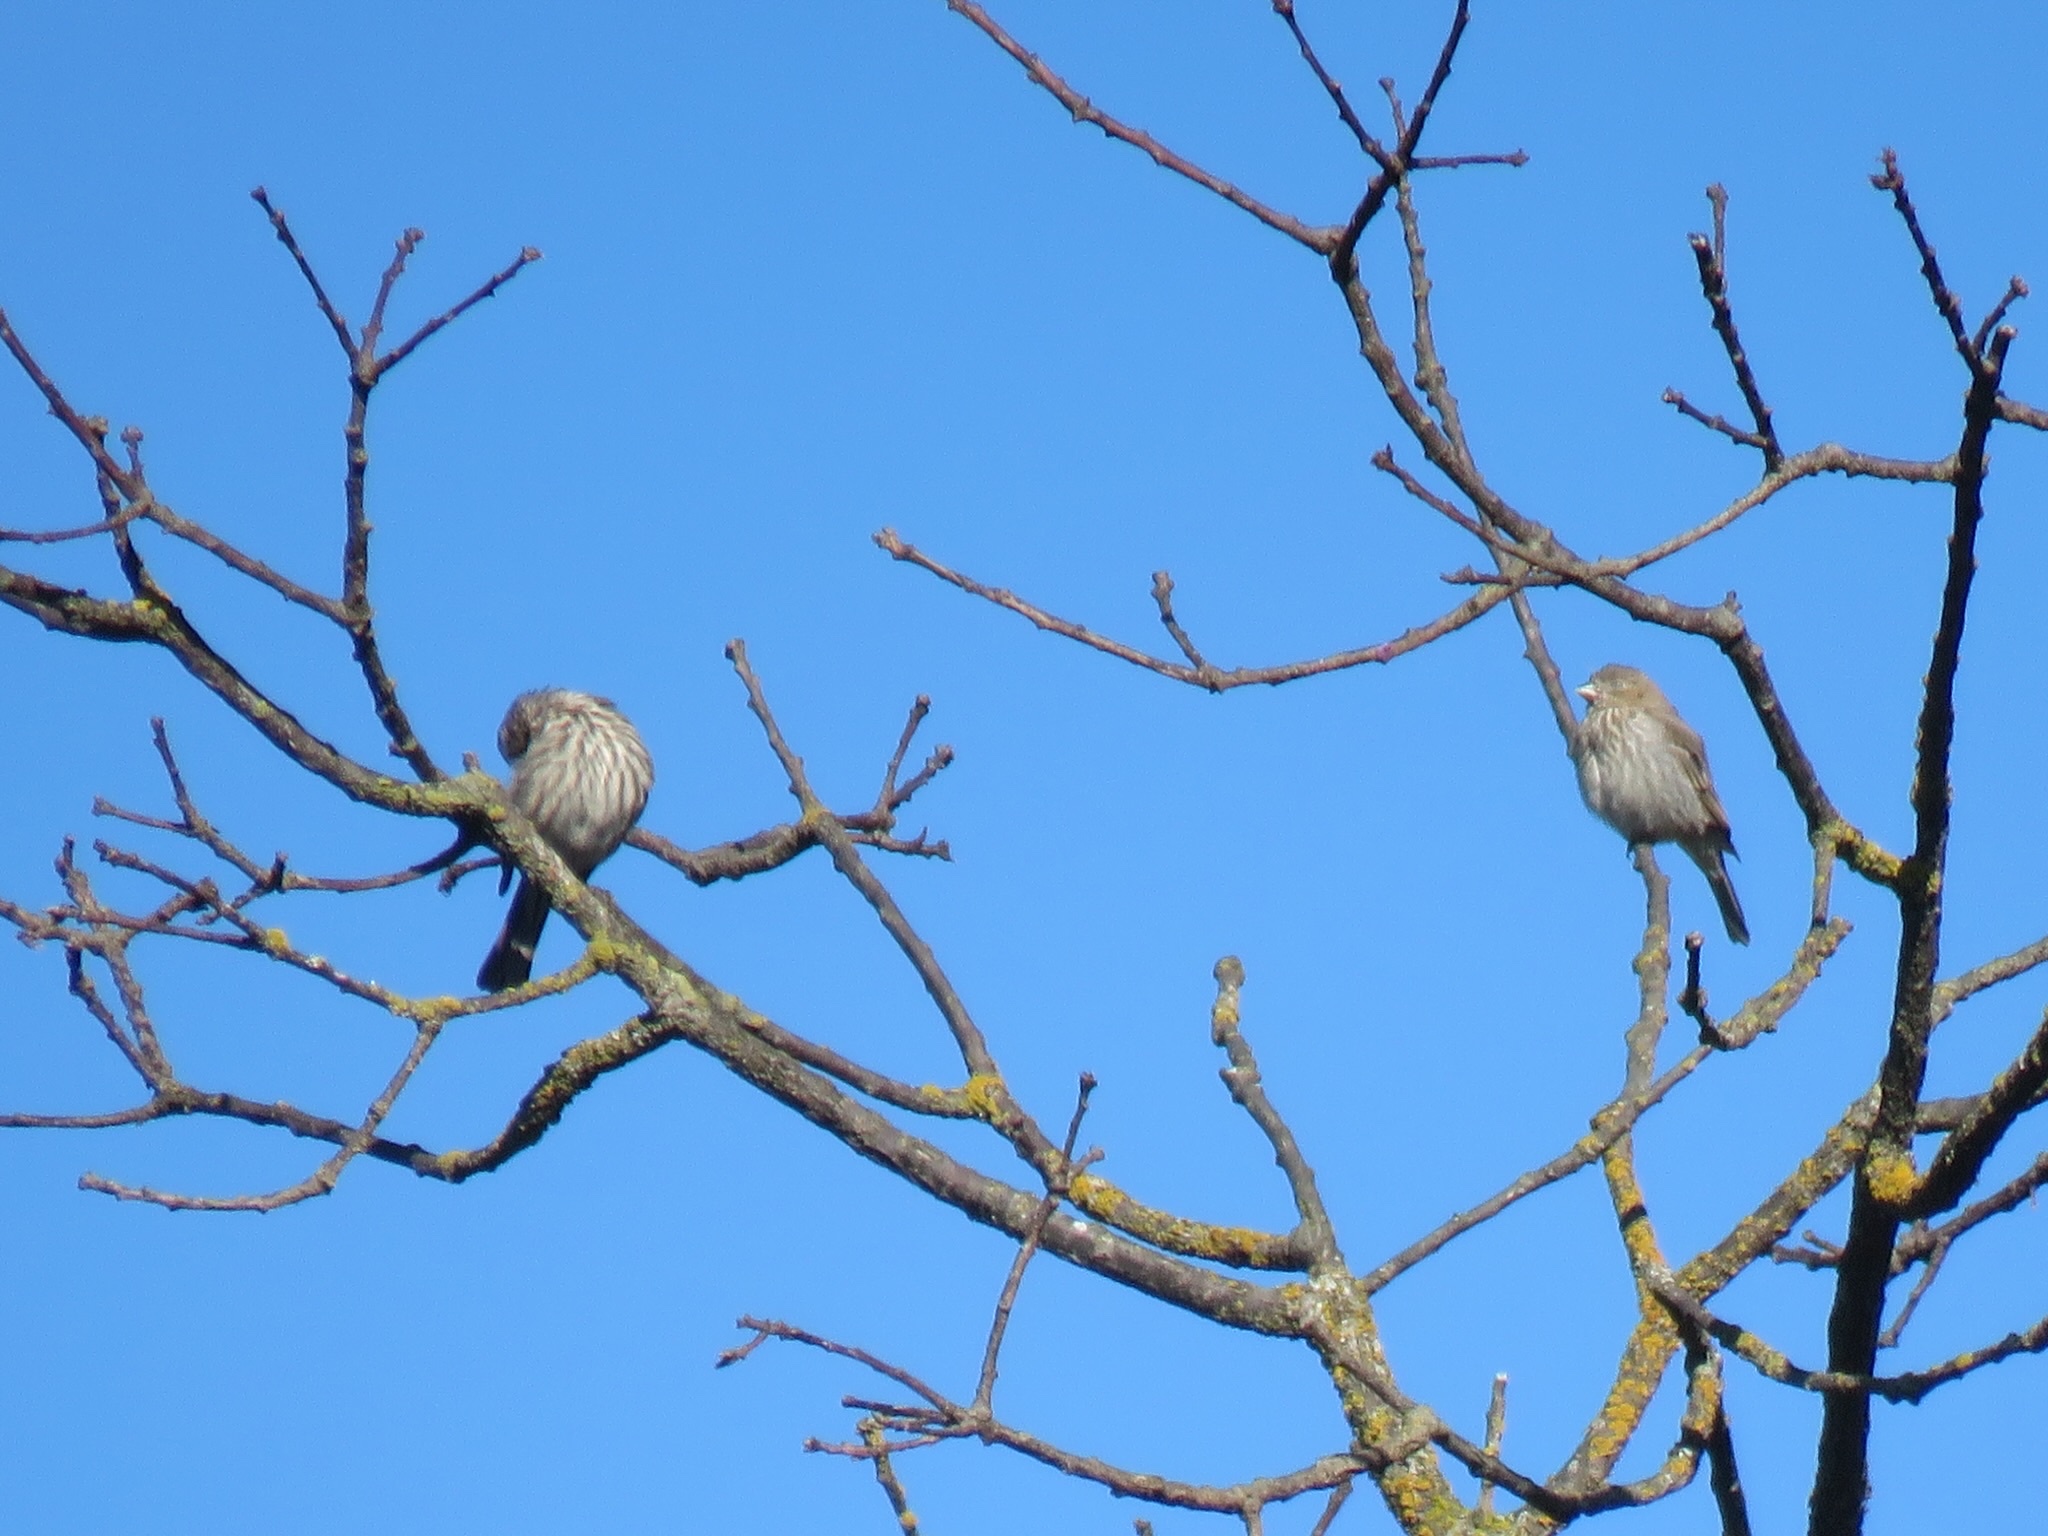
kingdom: Animalia
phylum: Chordata
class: Aves
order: Passeriformes
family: Fringillidae
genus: Haemorhous
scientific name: Haemorhous mexicanus
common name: House finch
